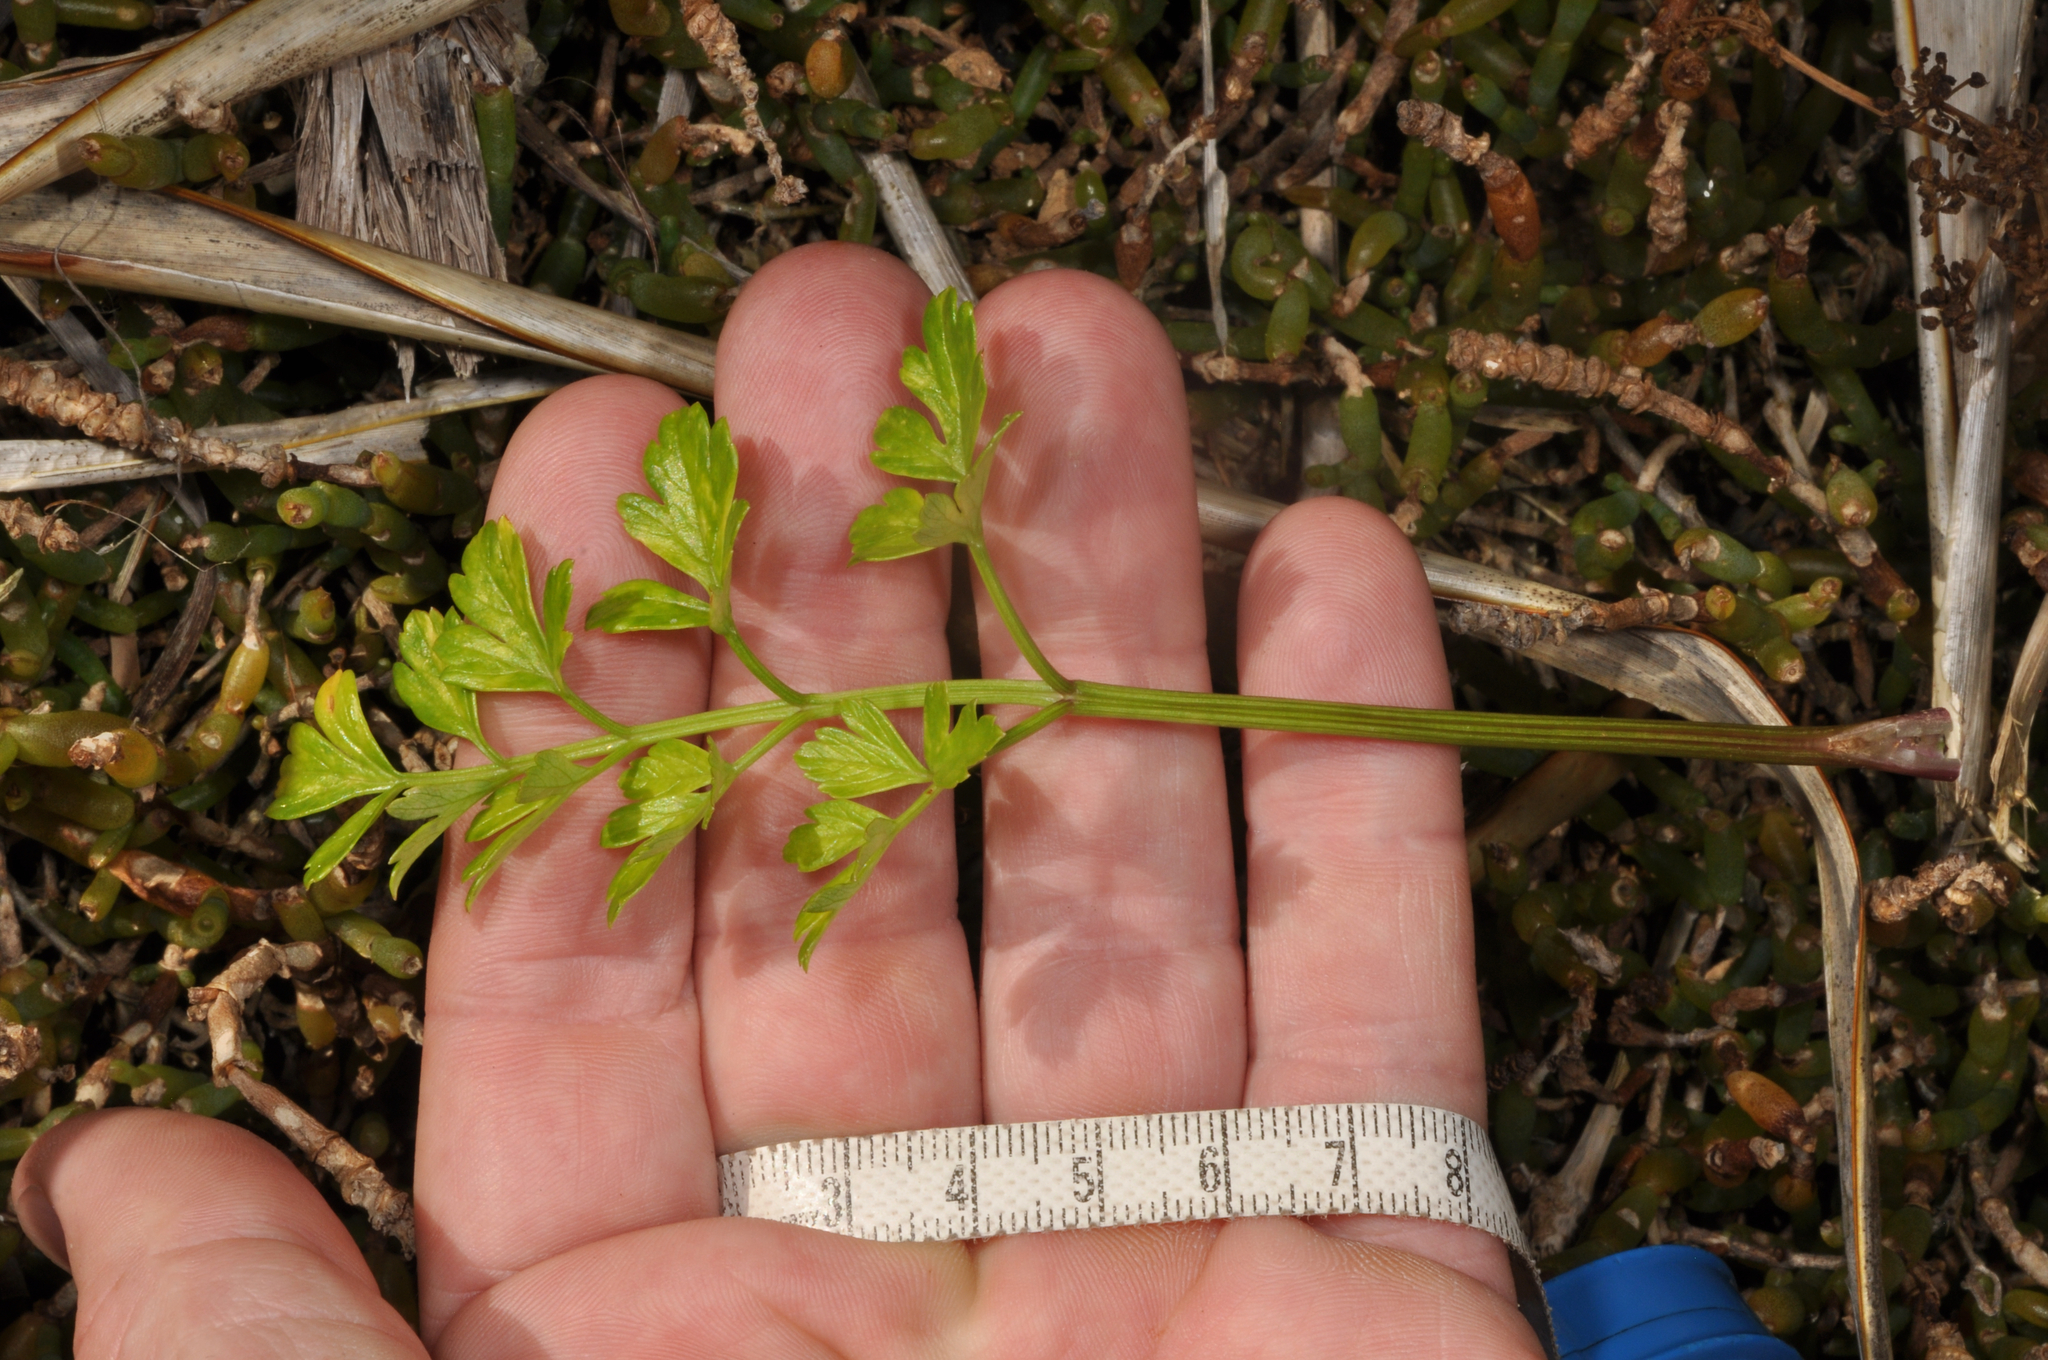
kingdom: Plantae
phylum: Tracheophyta
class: Magnoliopsida
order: Apiales
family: Apiaceae
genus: Apium
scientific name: Apium prostratum
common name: Prostrate marshwort
